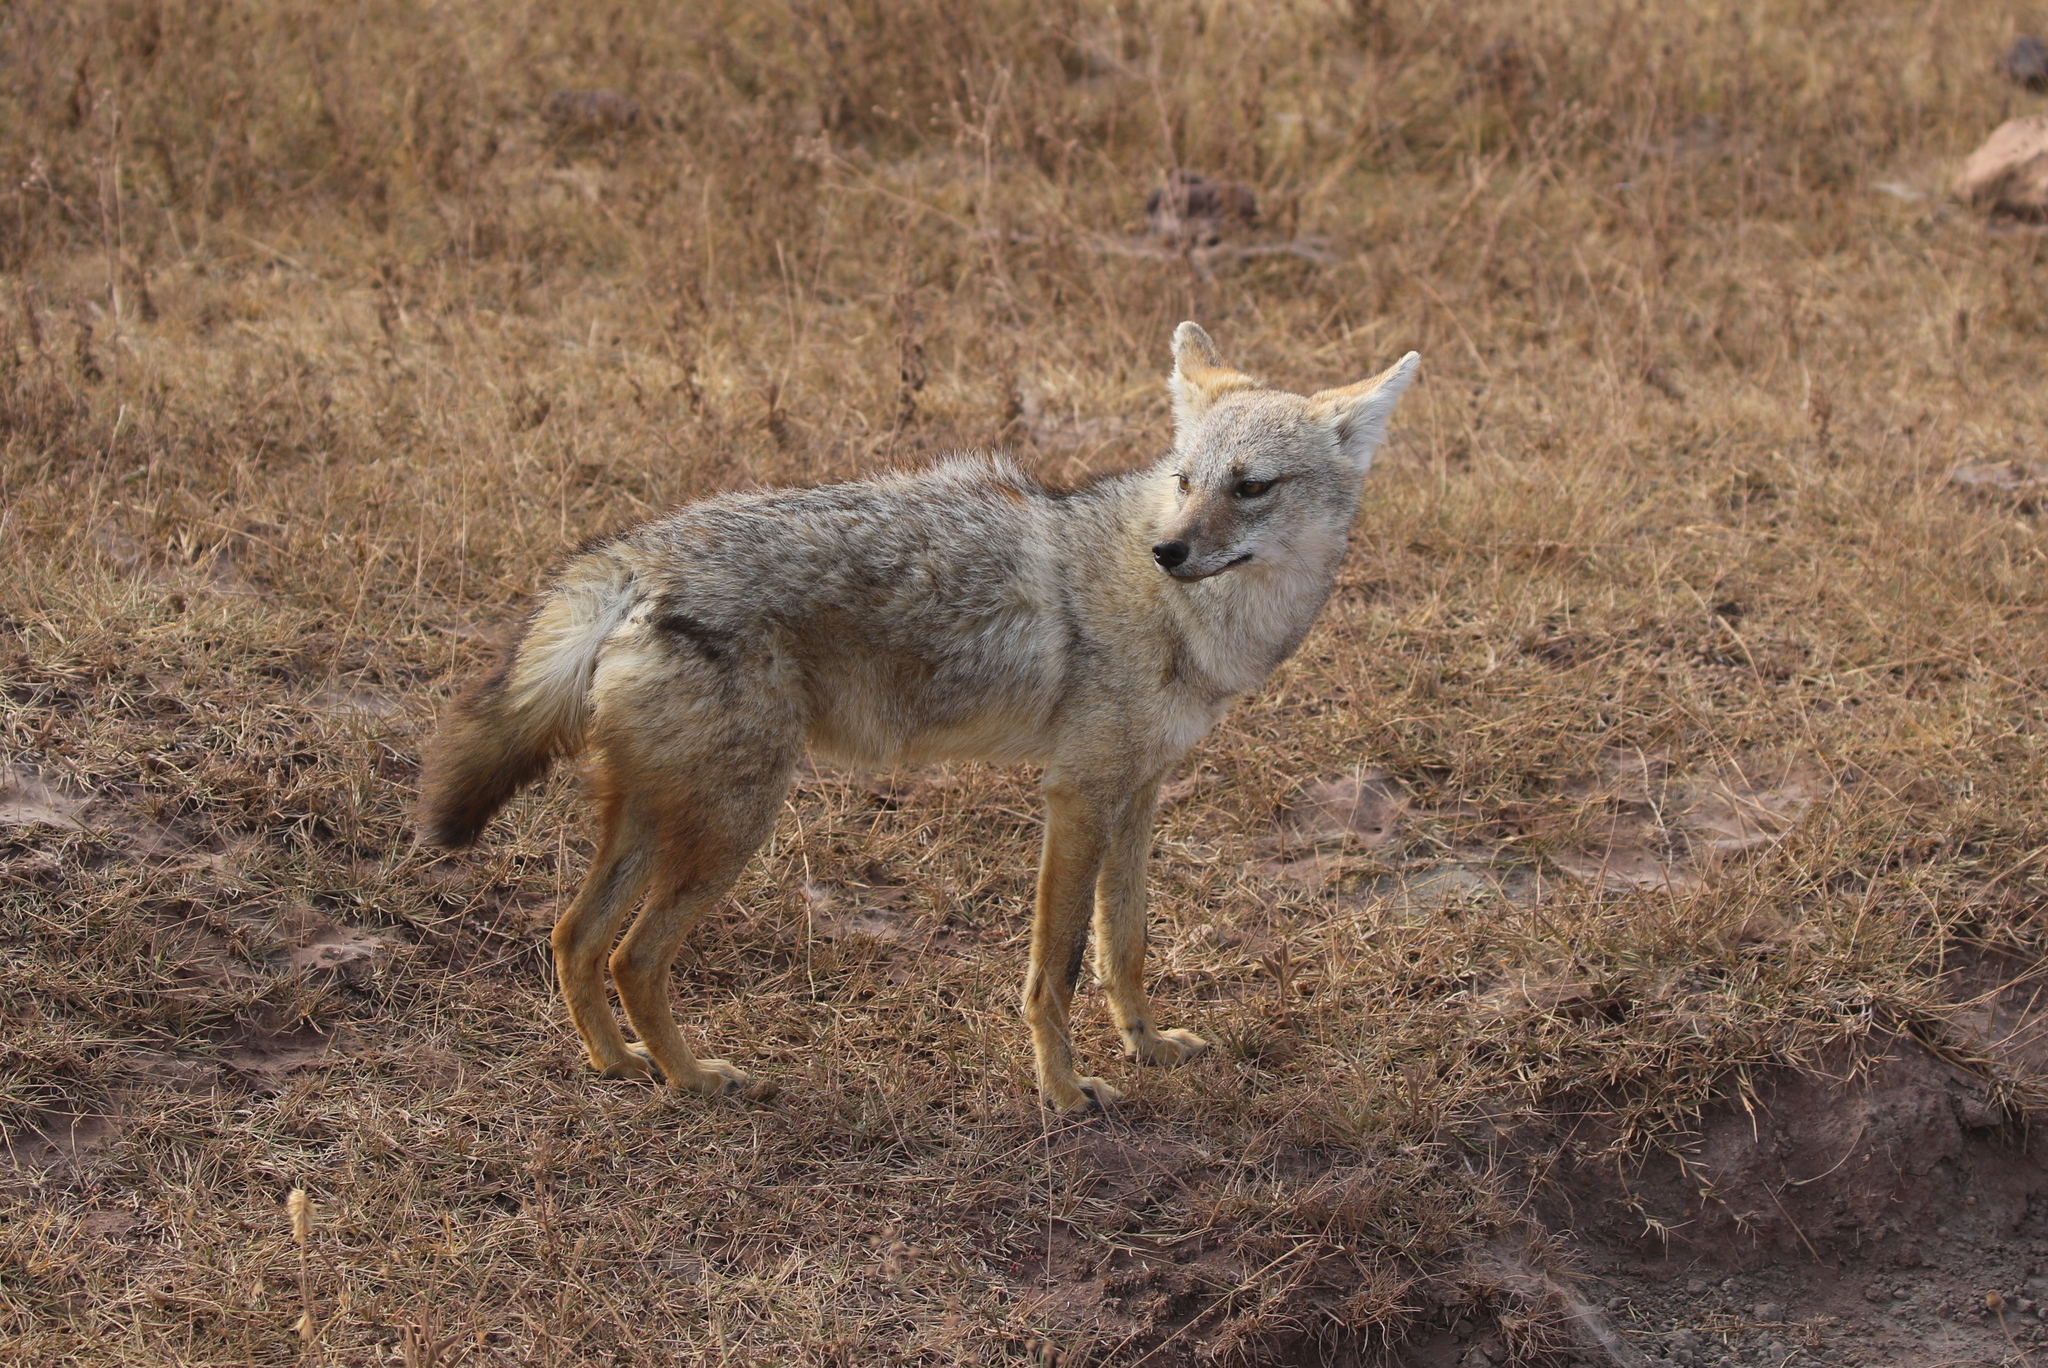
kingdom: Animalia
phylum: Chordata
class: Mammalia
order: Carnivora
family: Canidae
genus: Canis
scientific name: Canis lupaster
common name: African golden wolf
